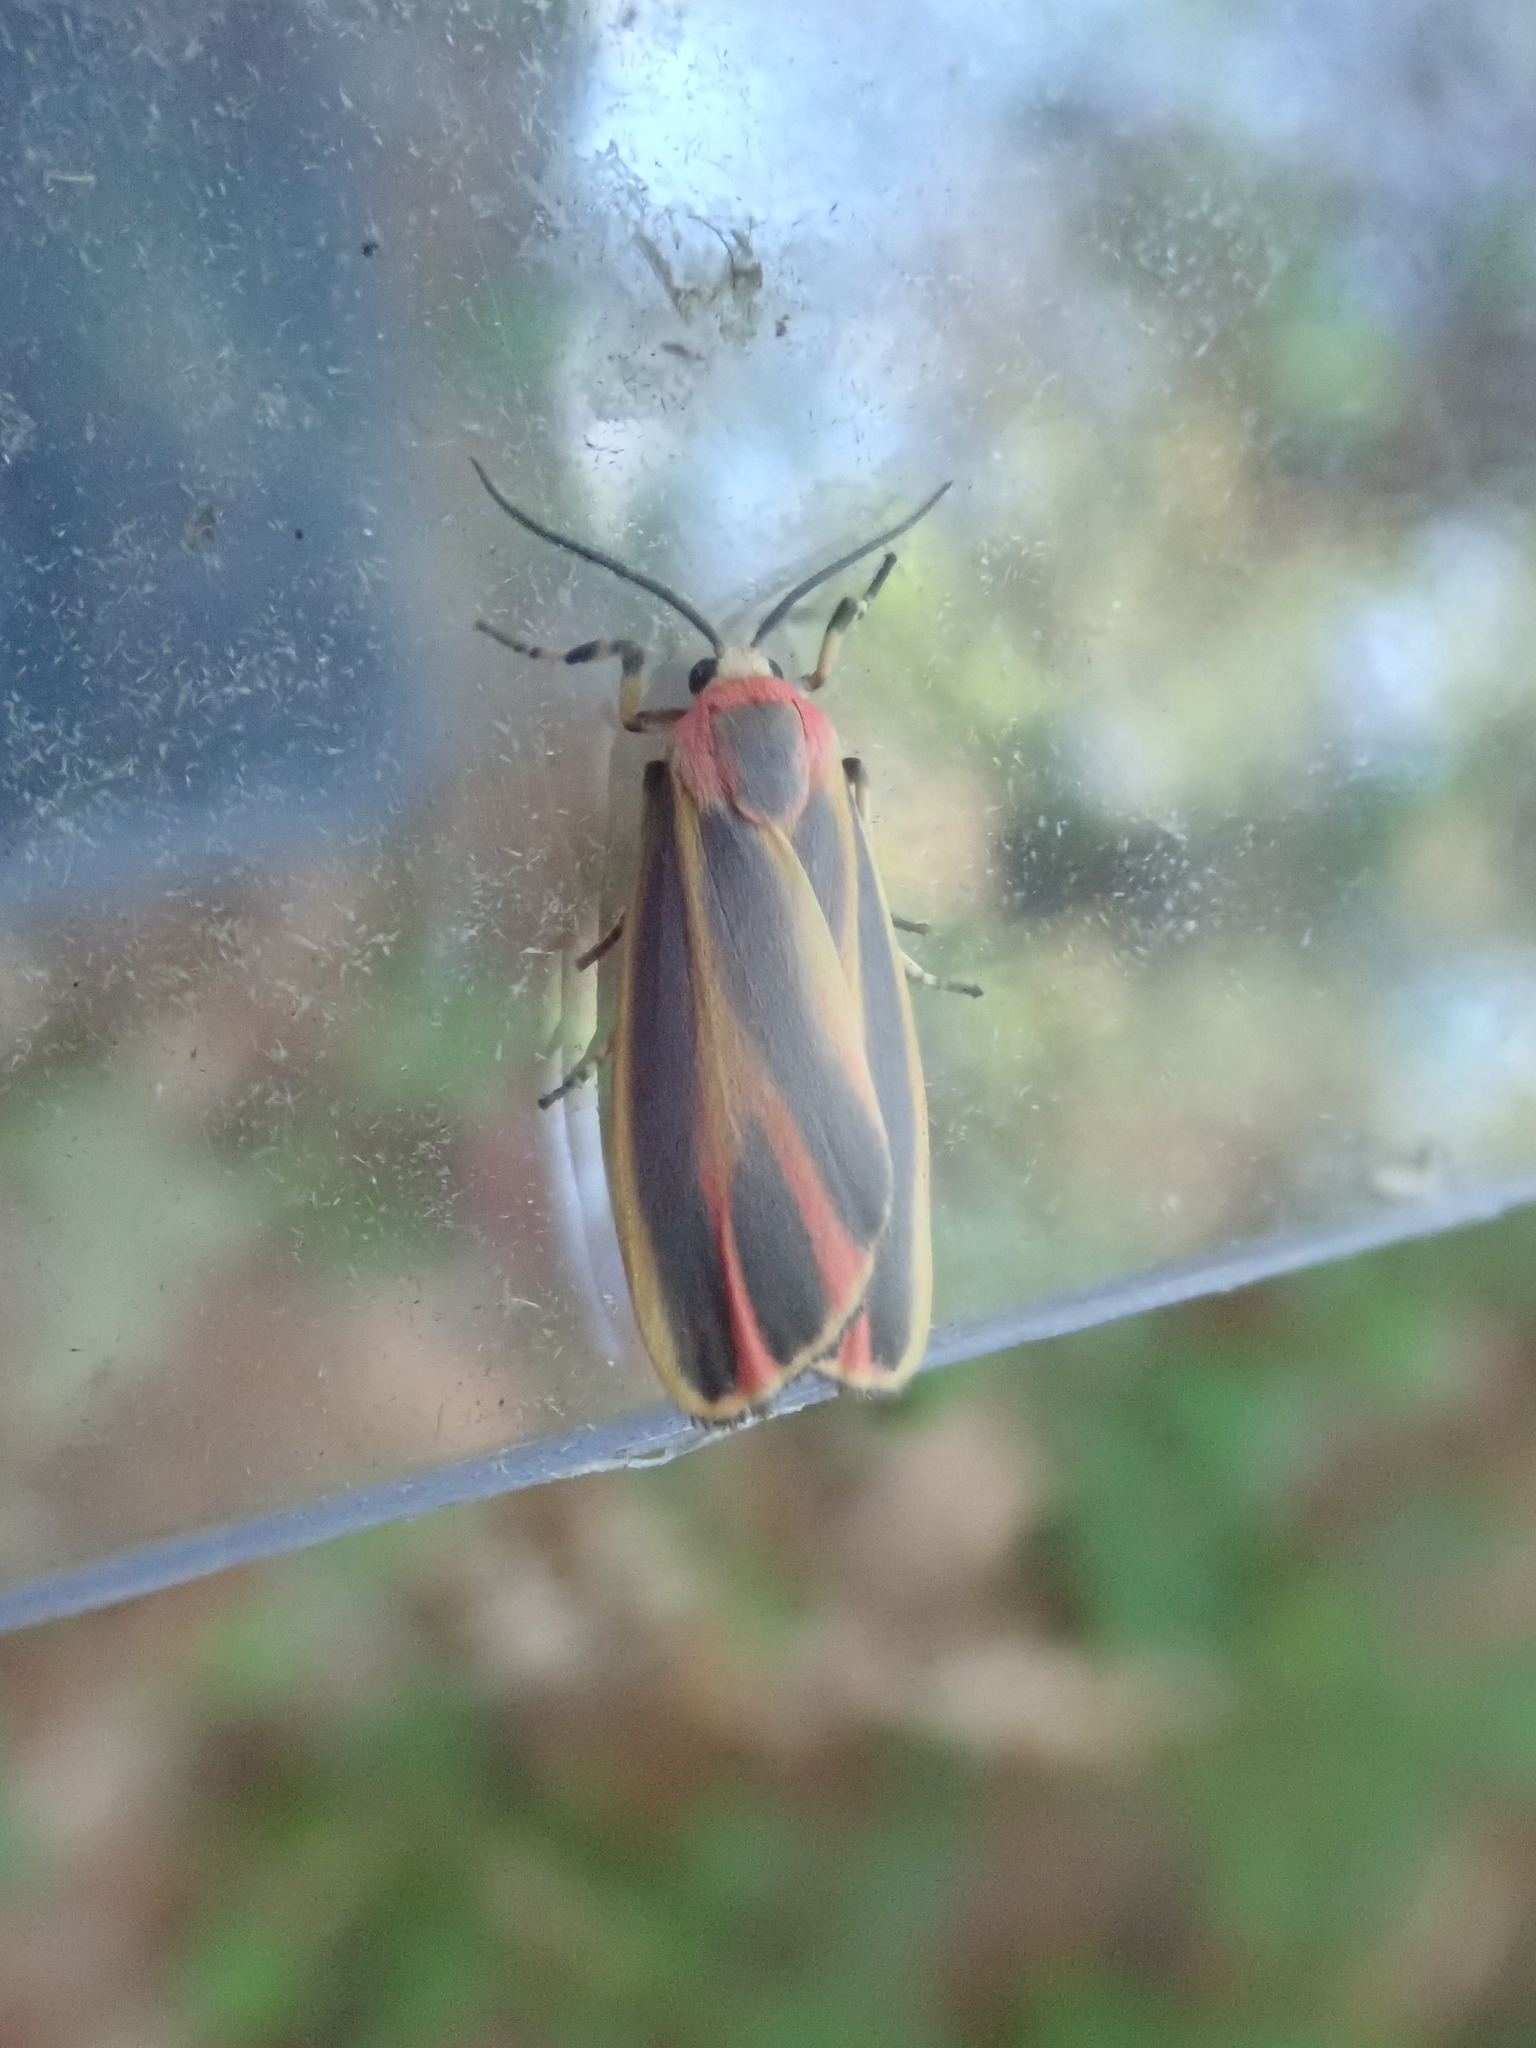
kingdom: Animalia
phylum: Arthropoda
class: Insecta
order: Lepidoptera
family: Erebidae
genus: Hypoprepia
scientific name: Hypoprepia fucosa
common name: Painted lichen moth
